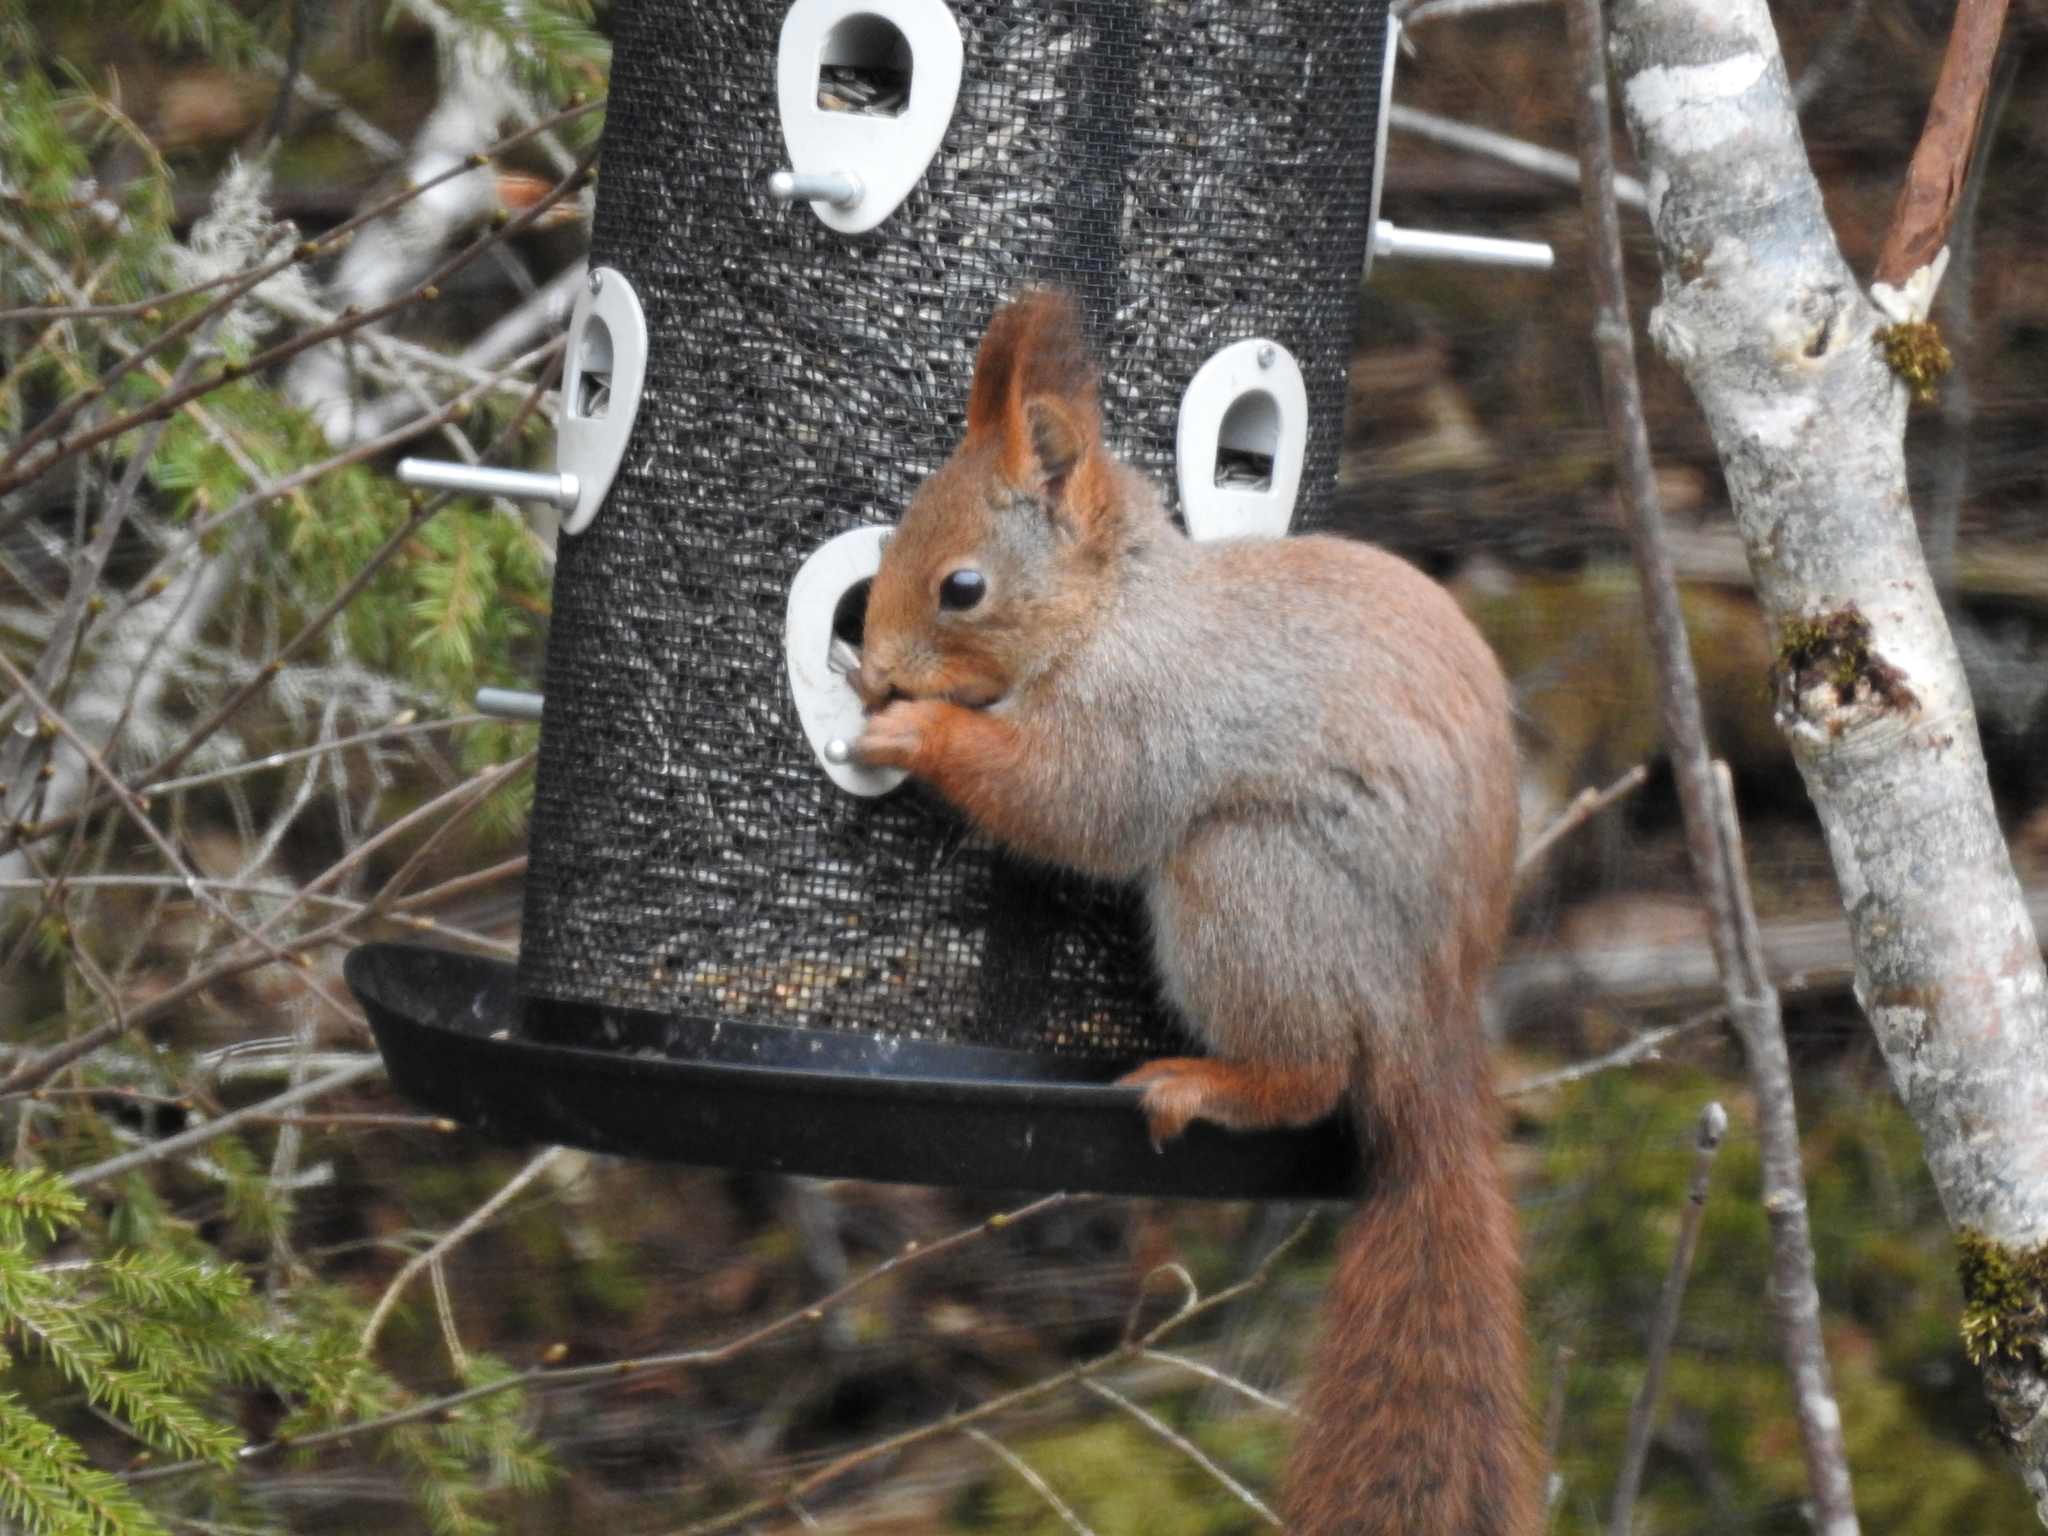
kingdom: Animalia
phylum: Chordata
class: Mammalia
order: Rodentia
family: Sciuridae
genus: Sciurus
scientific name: Sciurus vulgaris
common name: Eurasian red squirrel
